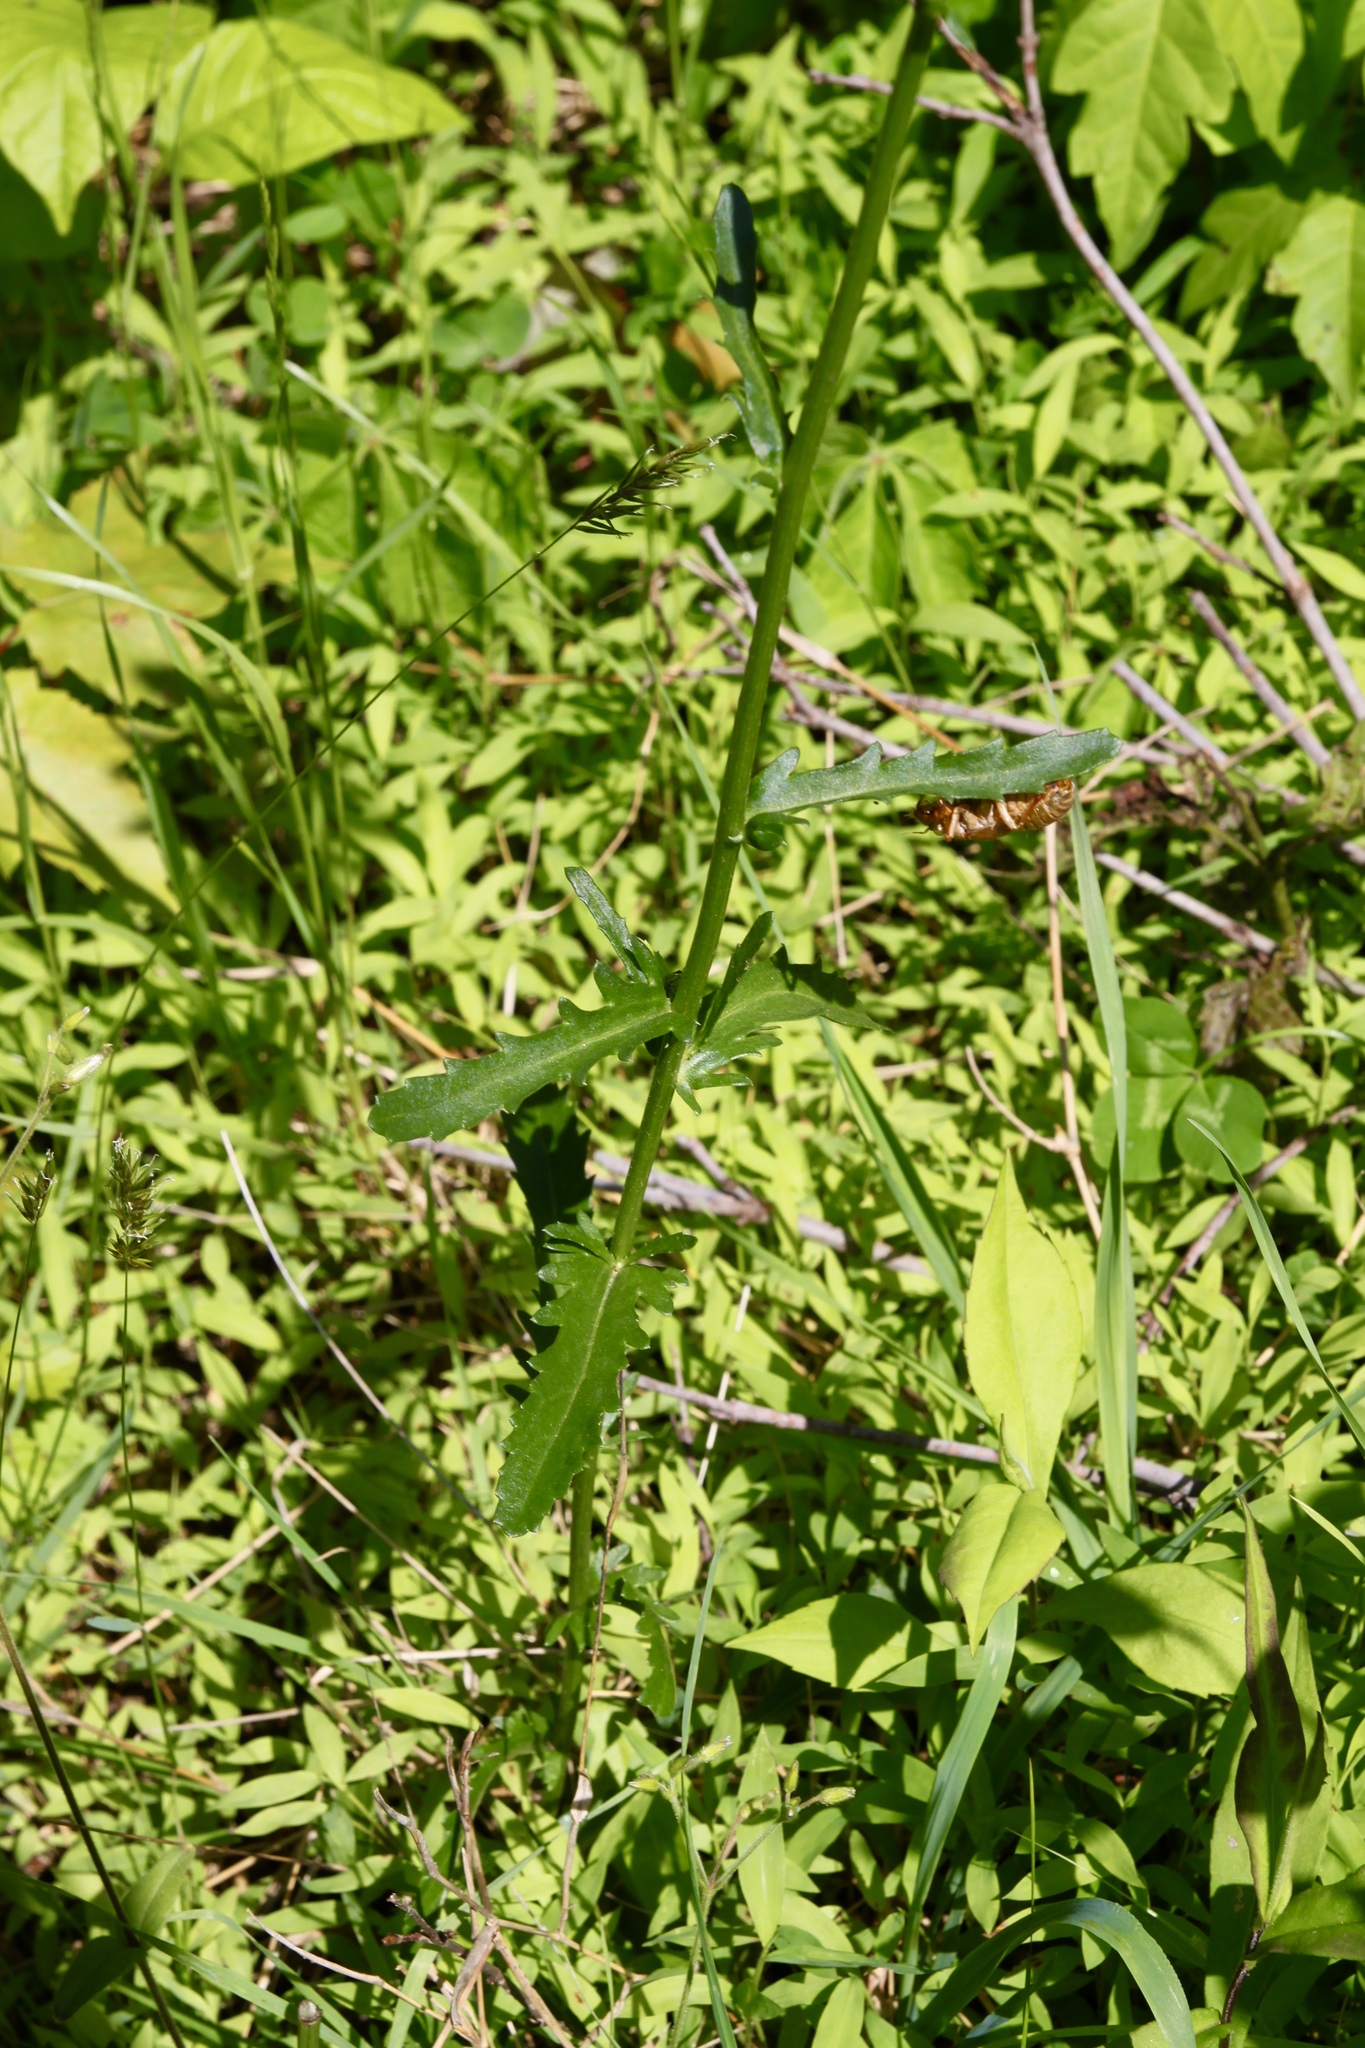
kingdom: Plantae
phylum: Tracheophyta
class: Magnoliopsida
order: Asterales
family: Asteraceae
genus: Leucanthemum
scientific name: Leucanthemum vulgare
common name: Oxeye daisy
